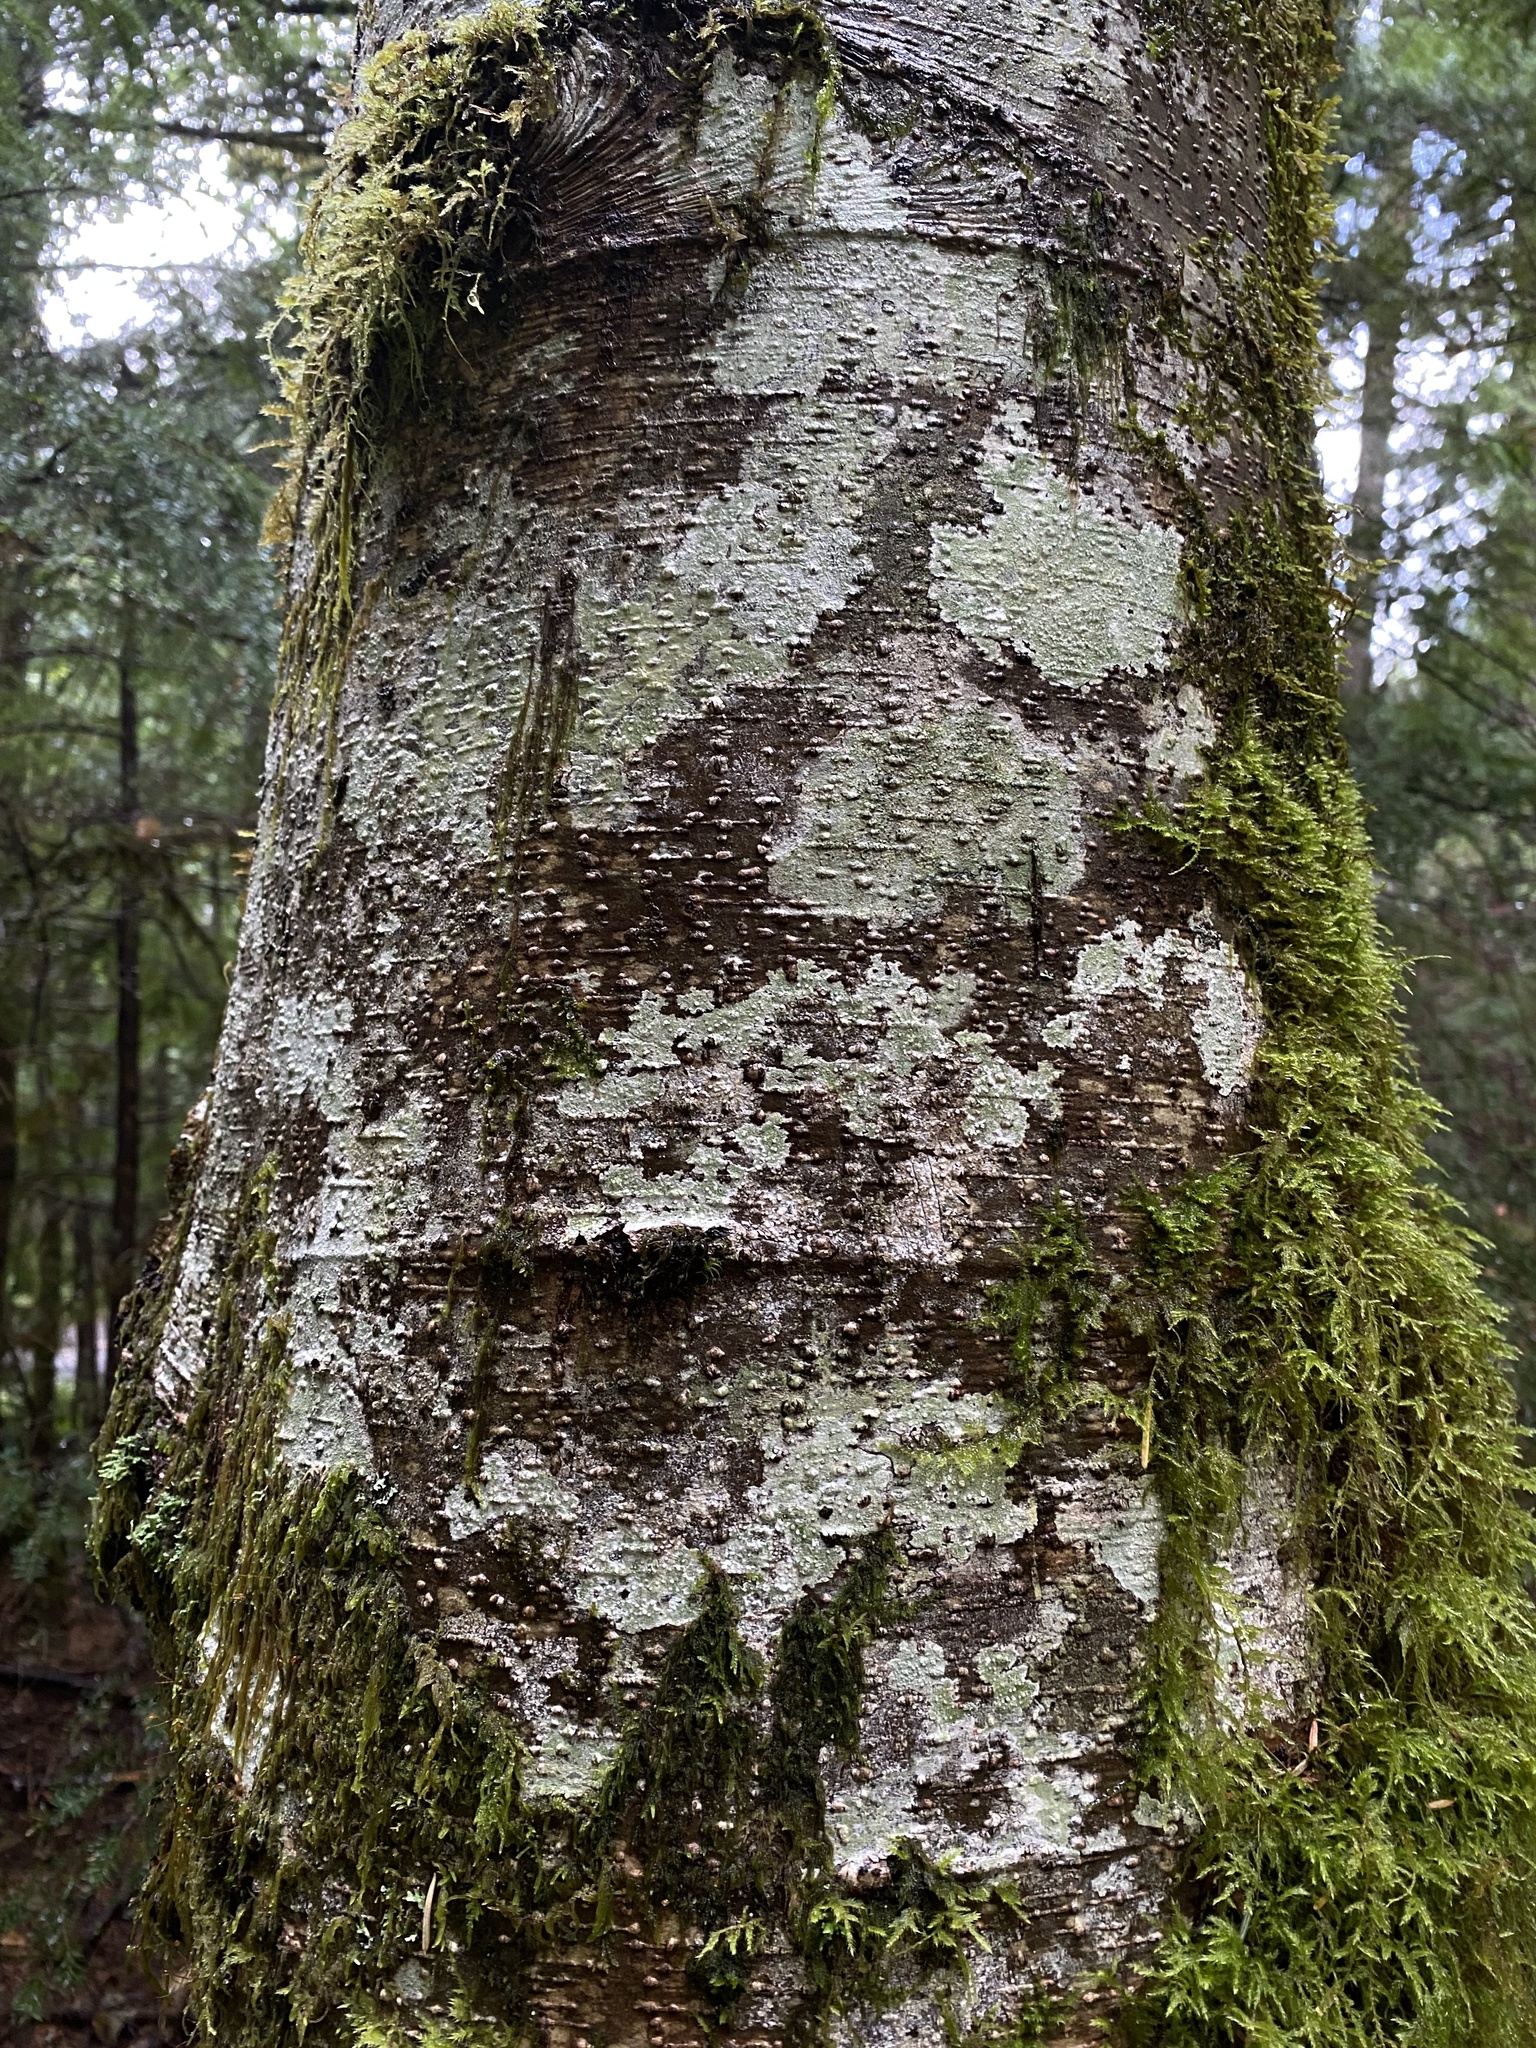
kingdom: Plantae
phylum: Tracheophyta
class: Magnoliopsida
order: Fagales
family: Betulaceae
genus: Alnus
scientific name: Alnus rubra
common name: Red alder
